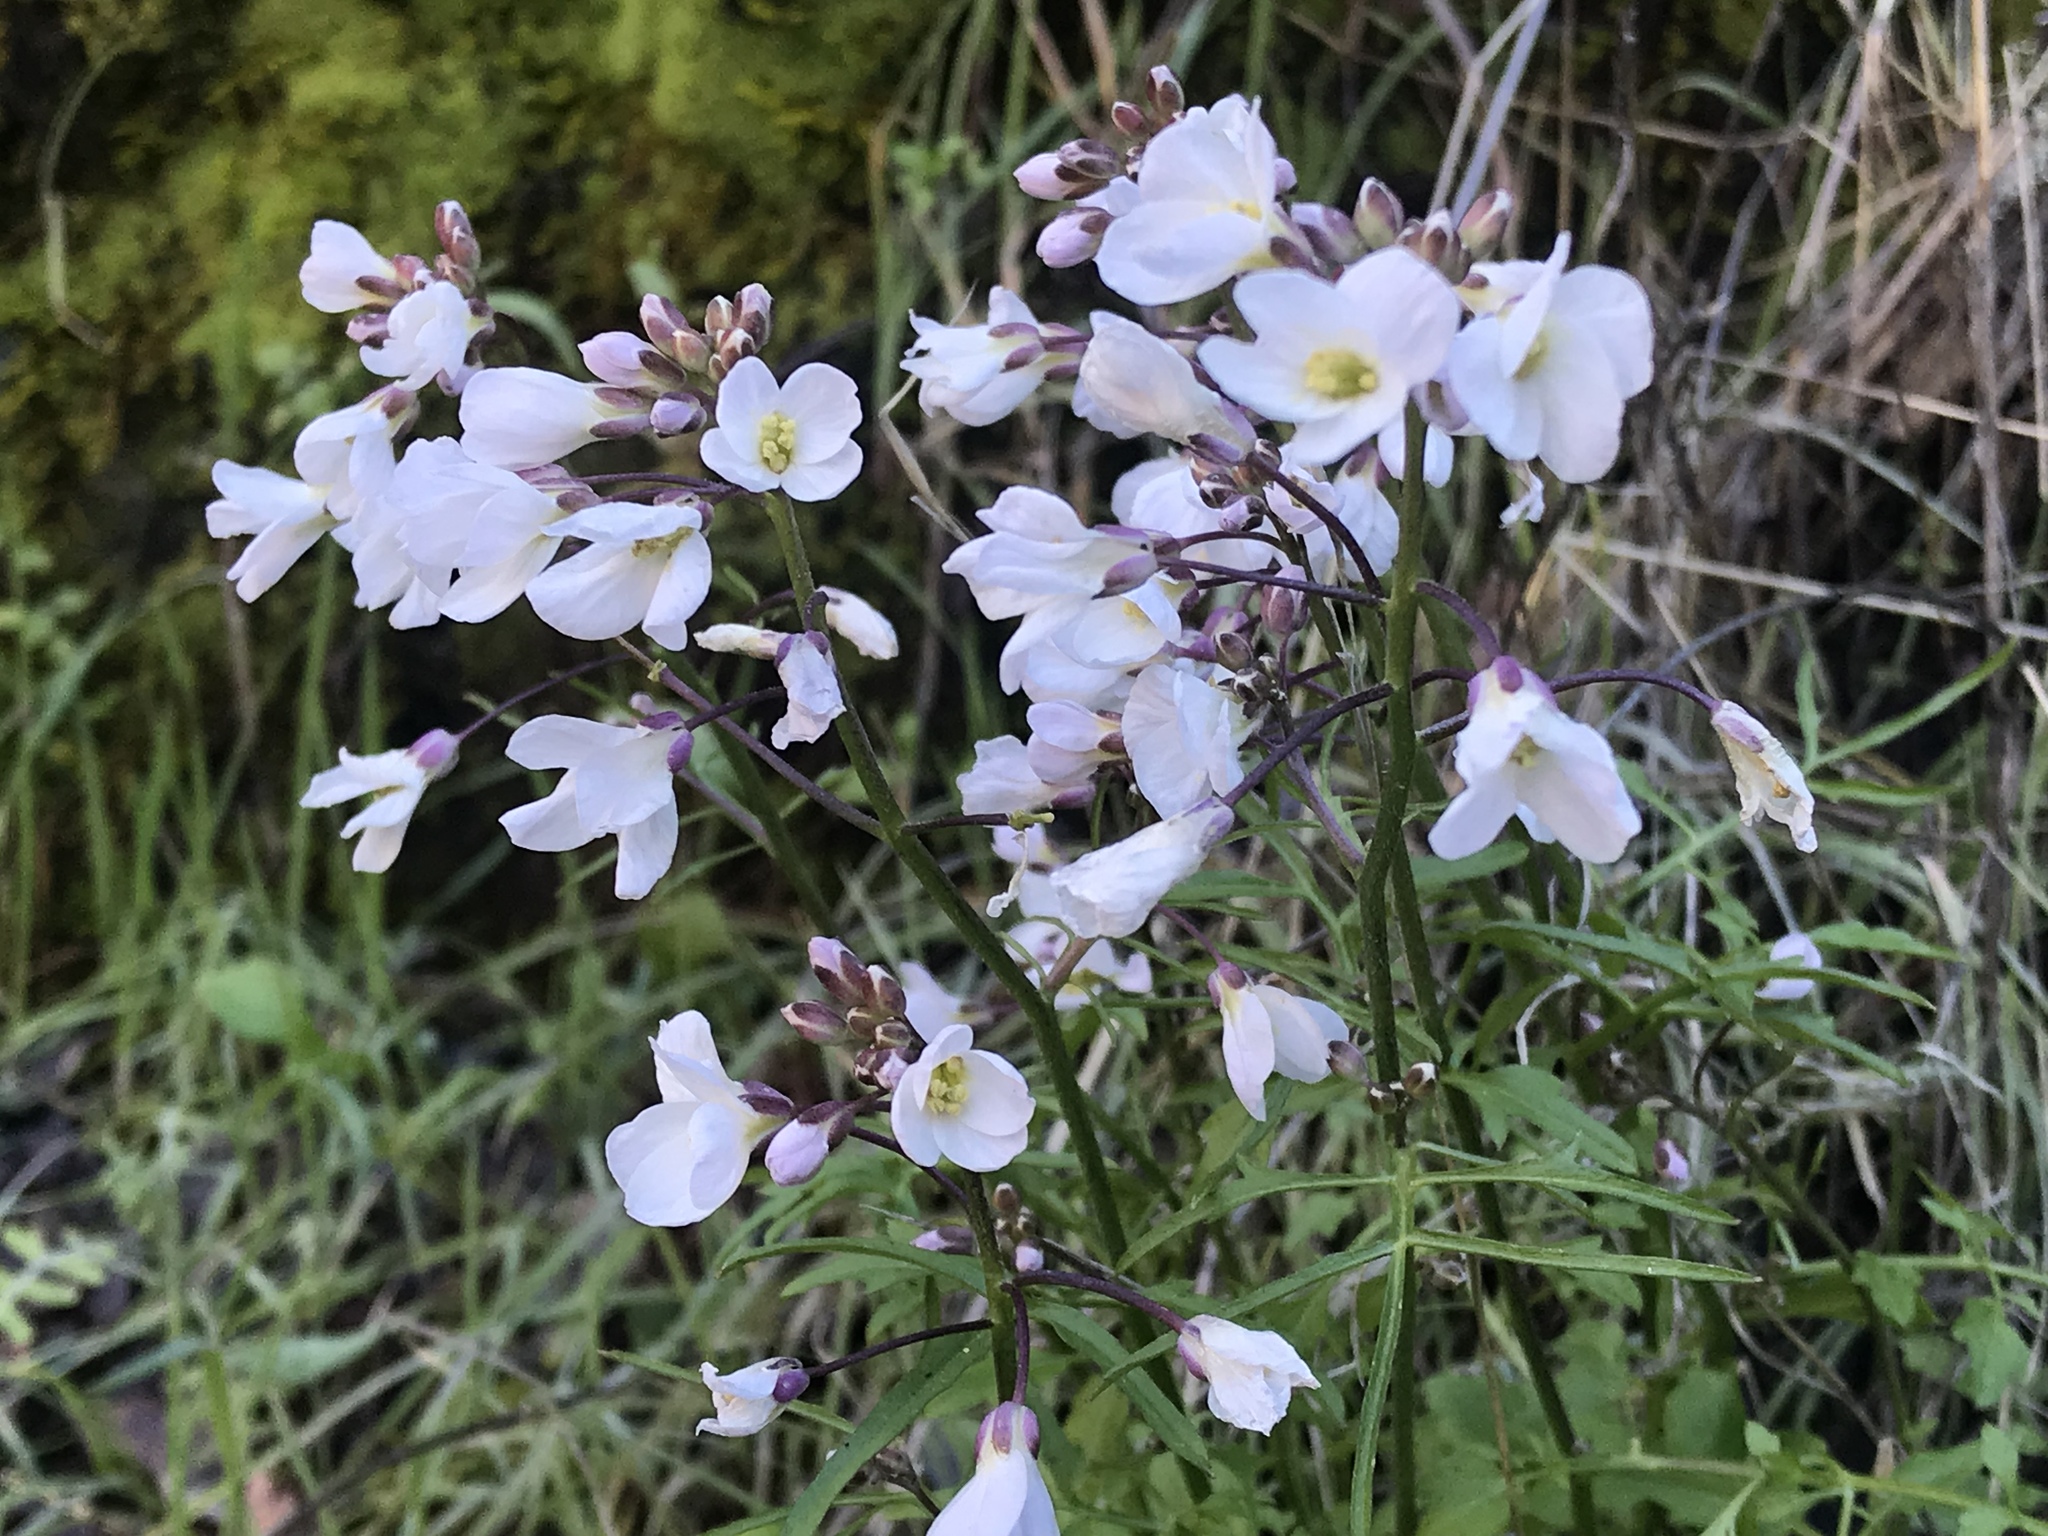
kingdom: Plantae
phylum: Tracheophyta
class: Magnoliopsida
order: Brassicales
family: Brassicaceae
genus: Cardamine
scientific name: Cardamine californica
